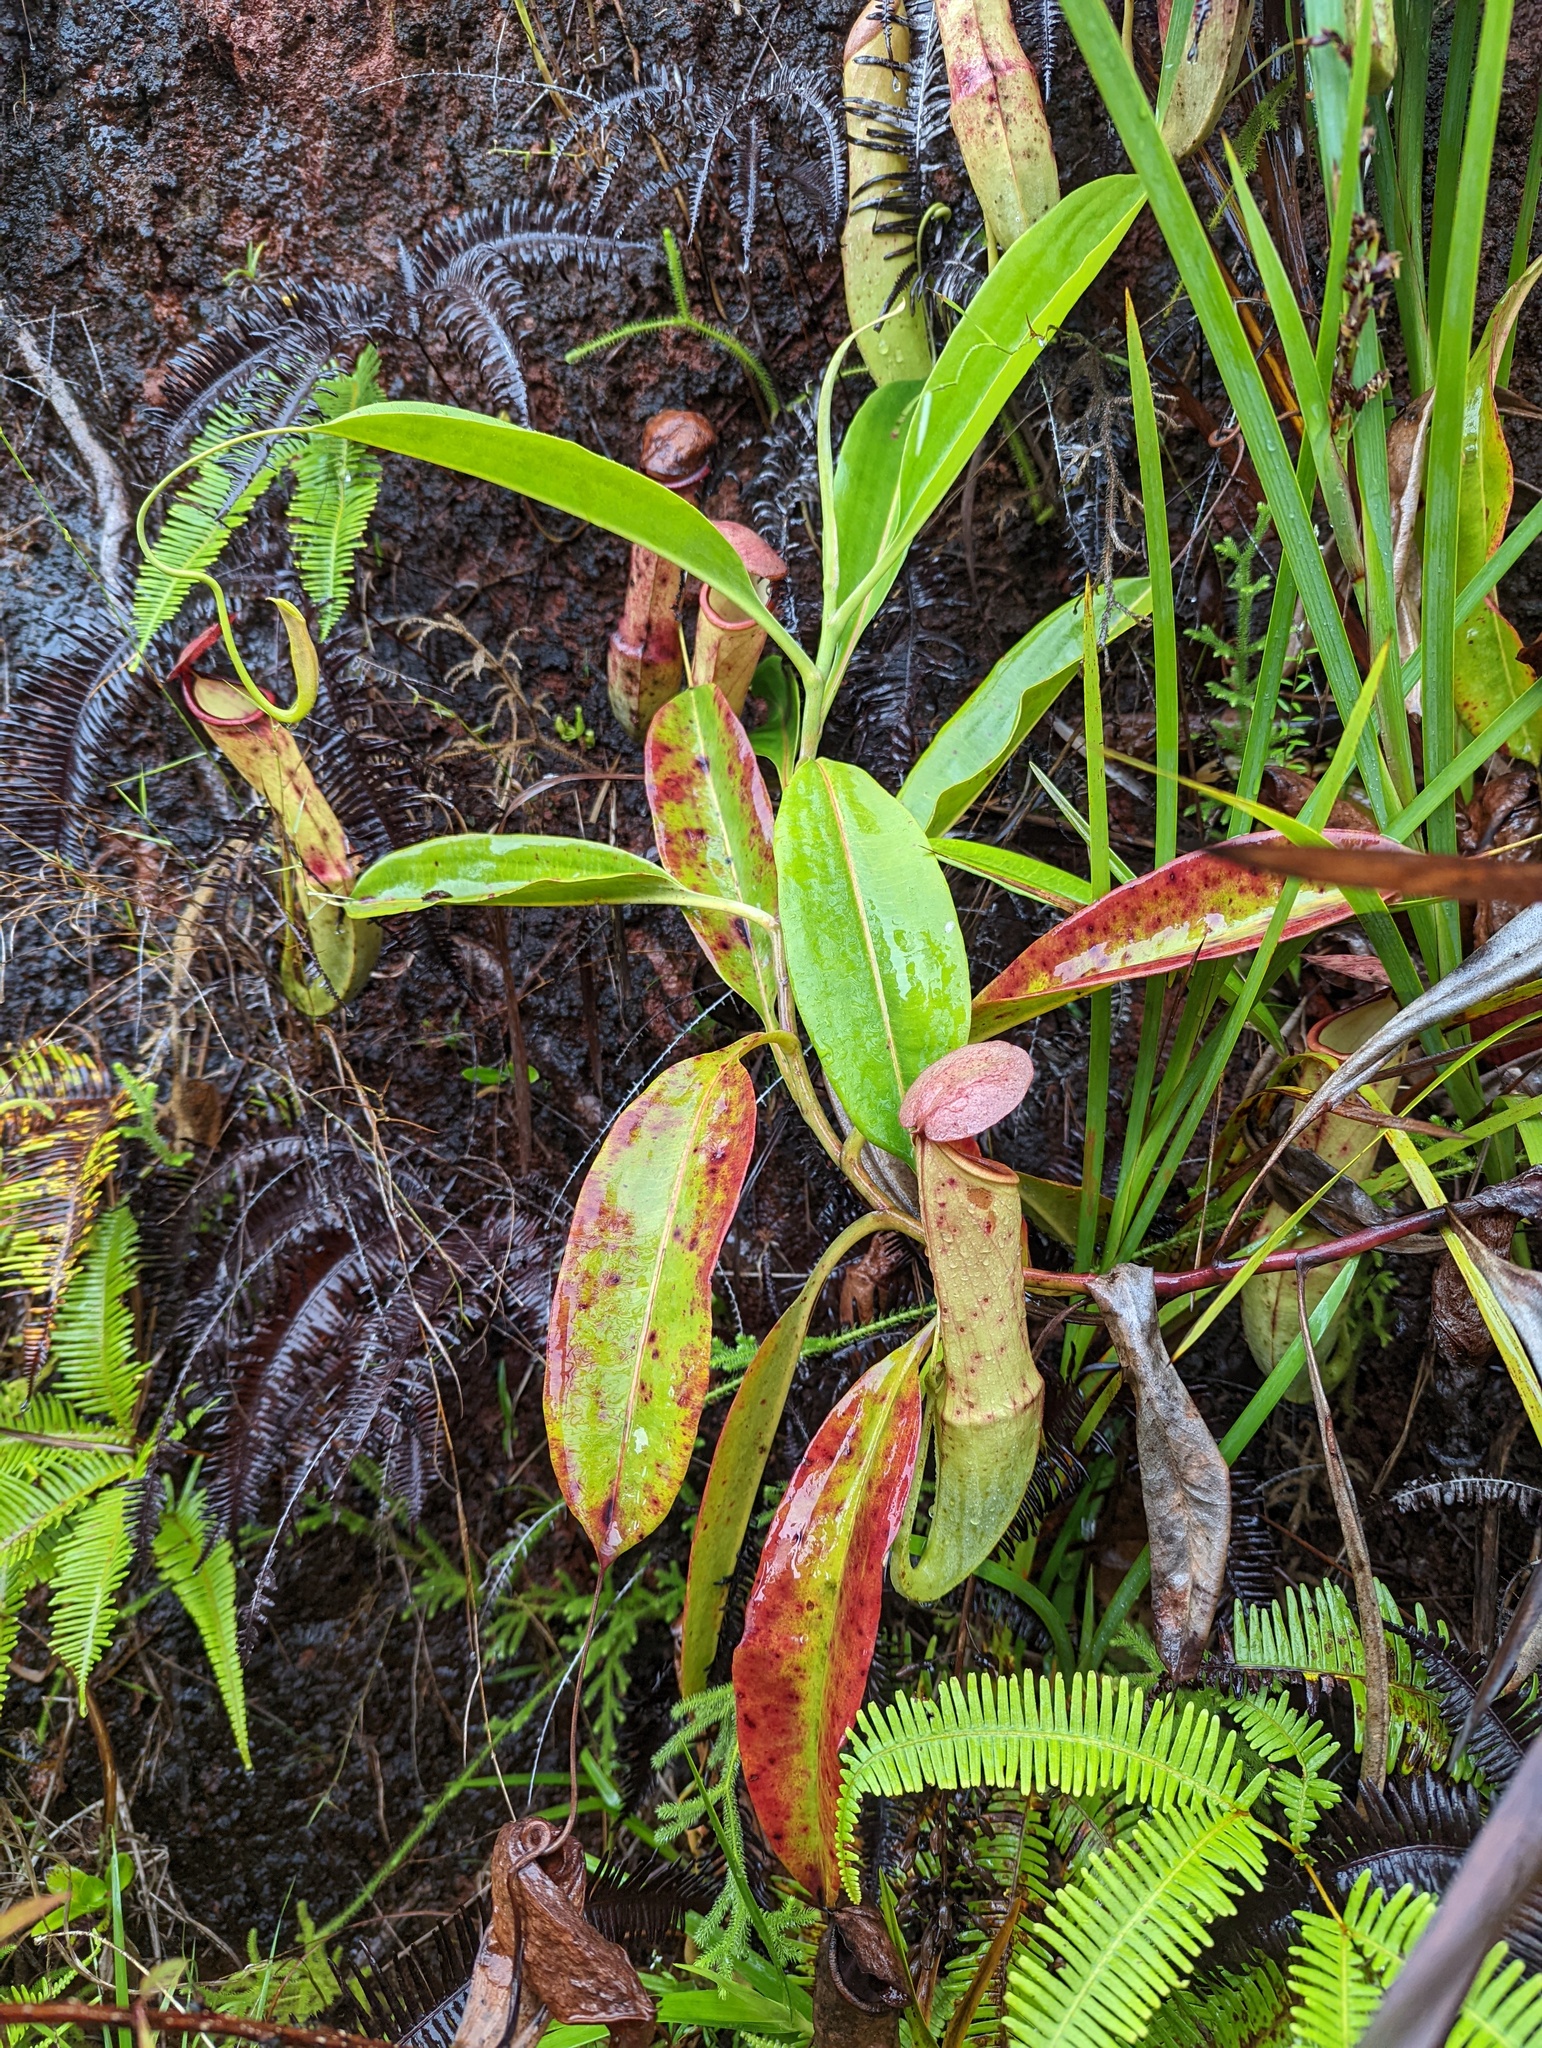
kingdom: Plantae
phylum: Tracheophyta
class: Magnoliopsida
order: Caryophyllales
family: Nepenthaceae
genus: Nepenthes
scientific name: Nepenthes mirabilis
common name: Tropical pitcherplant
